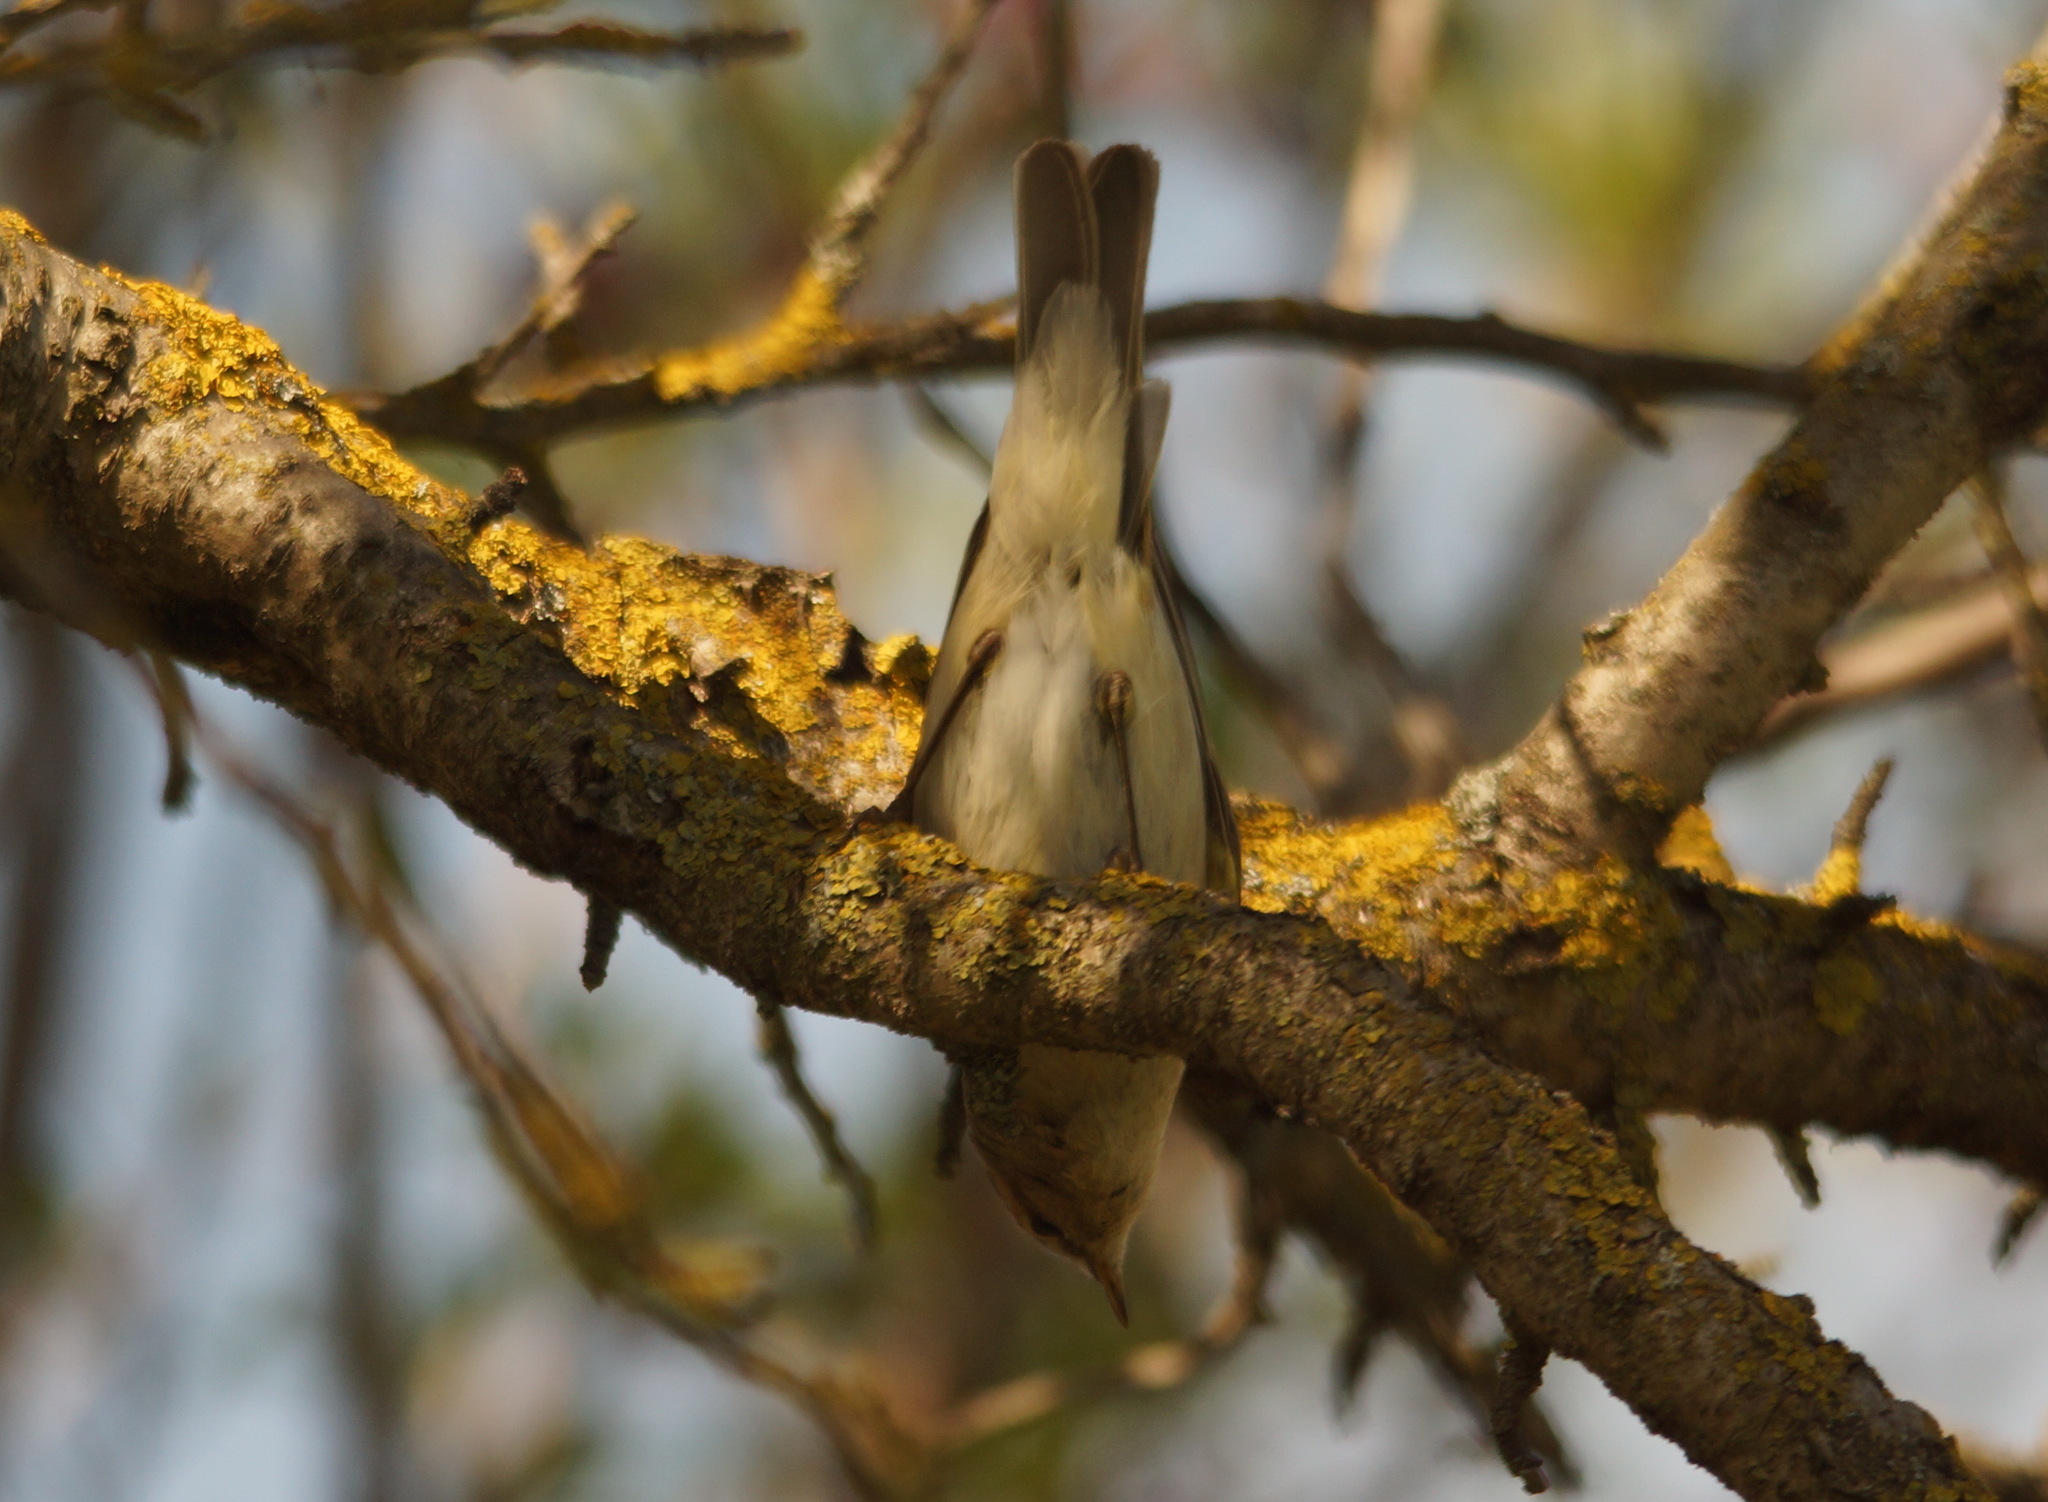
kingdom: Animalia
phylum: Chordata
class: Aves
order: Passeriformes
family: Phylloscopidae
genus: Phylloscopus
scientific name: Phylloscopus collybita
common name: Common chiffchaff
